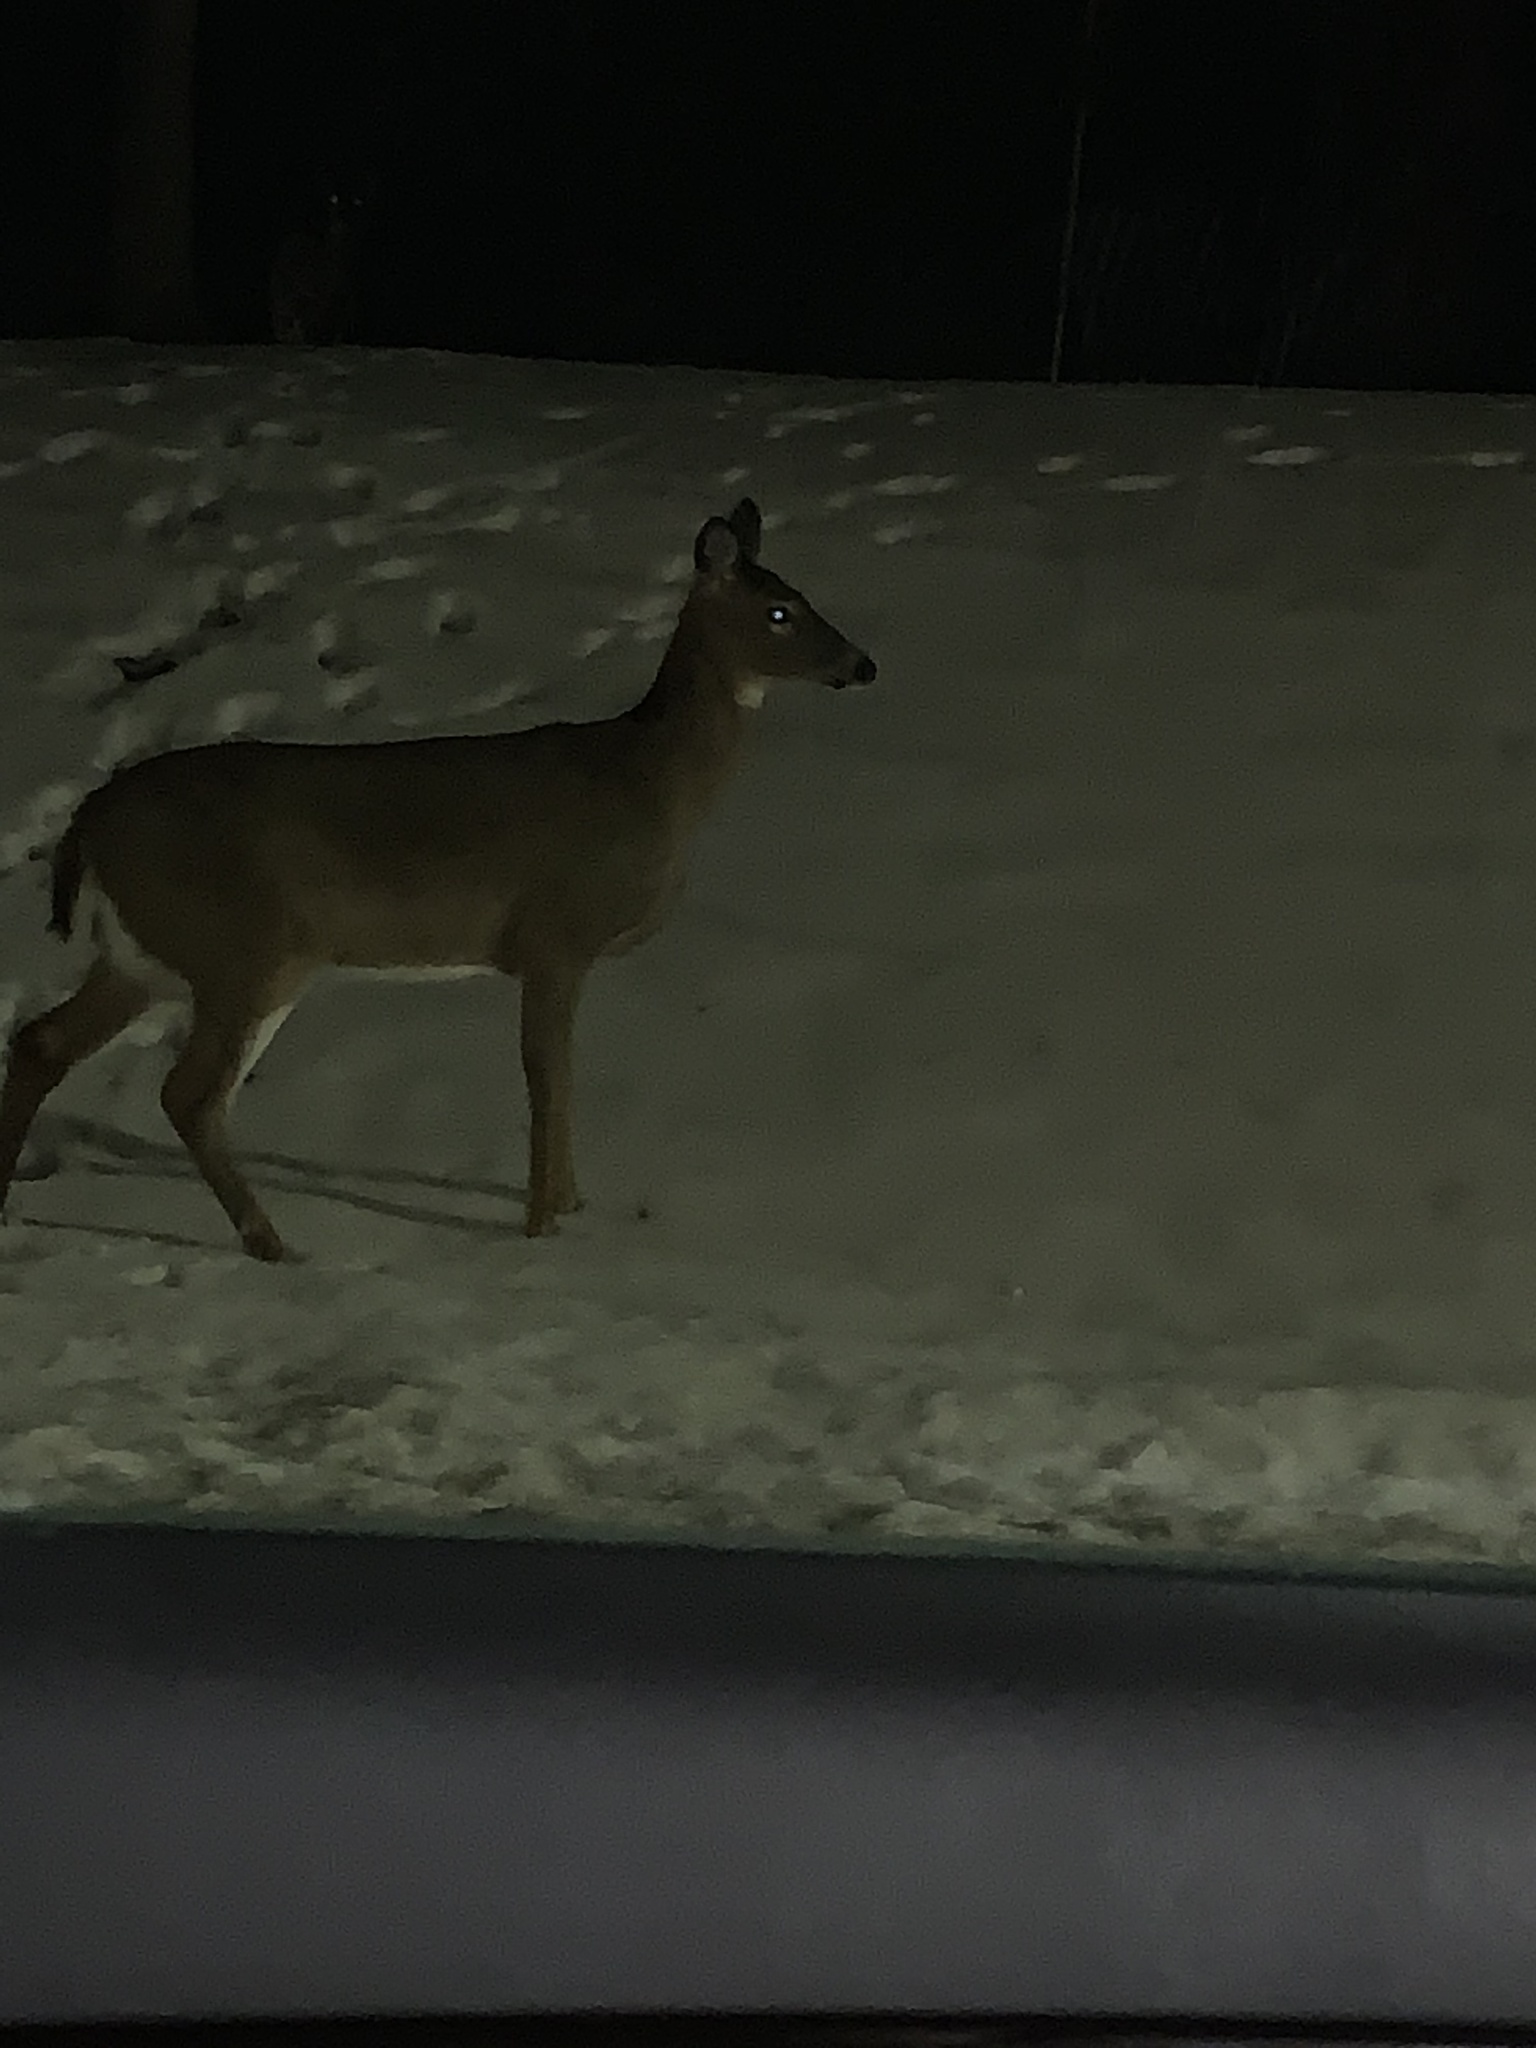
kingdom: Animalia
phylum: Chordata
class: Mammalia
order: Artiodactyla
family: Cervidae
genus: Odocoileus
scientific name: Odocoileus virginianus
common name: White-tailed deer
